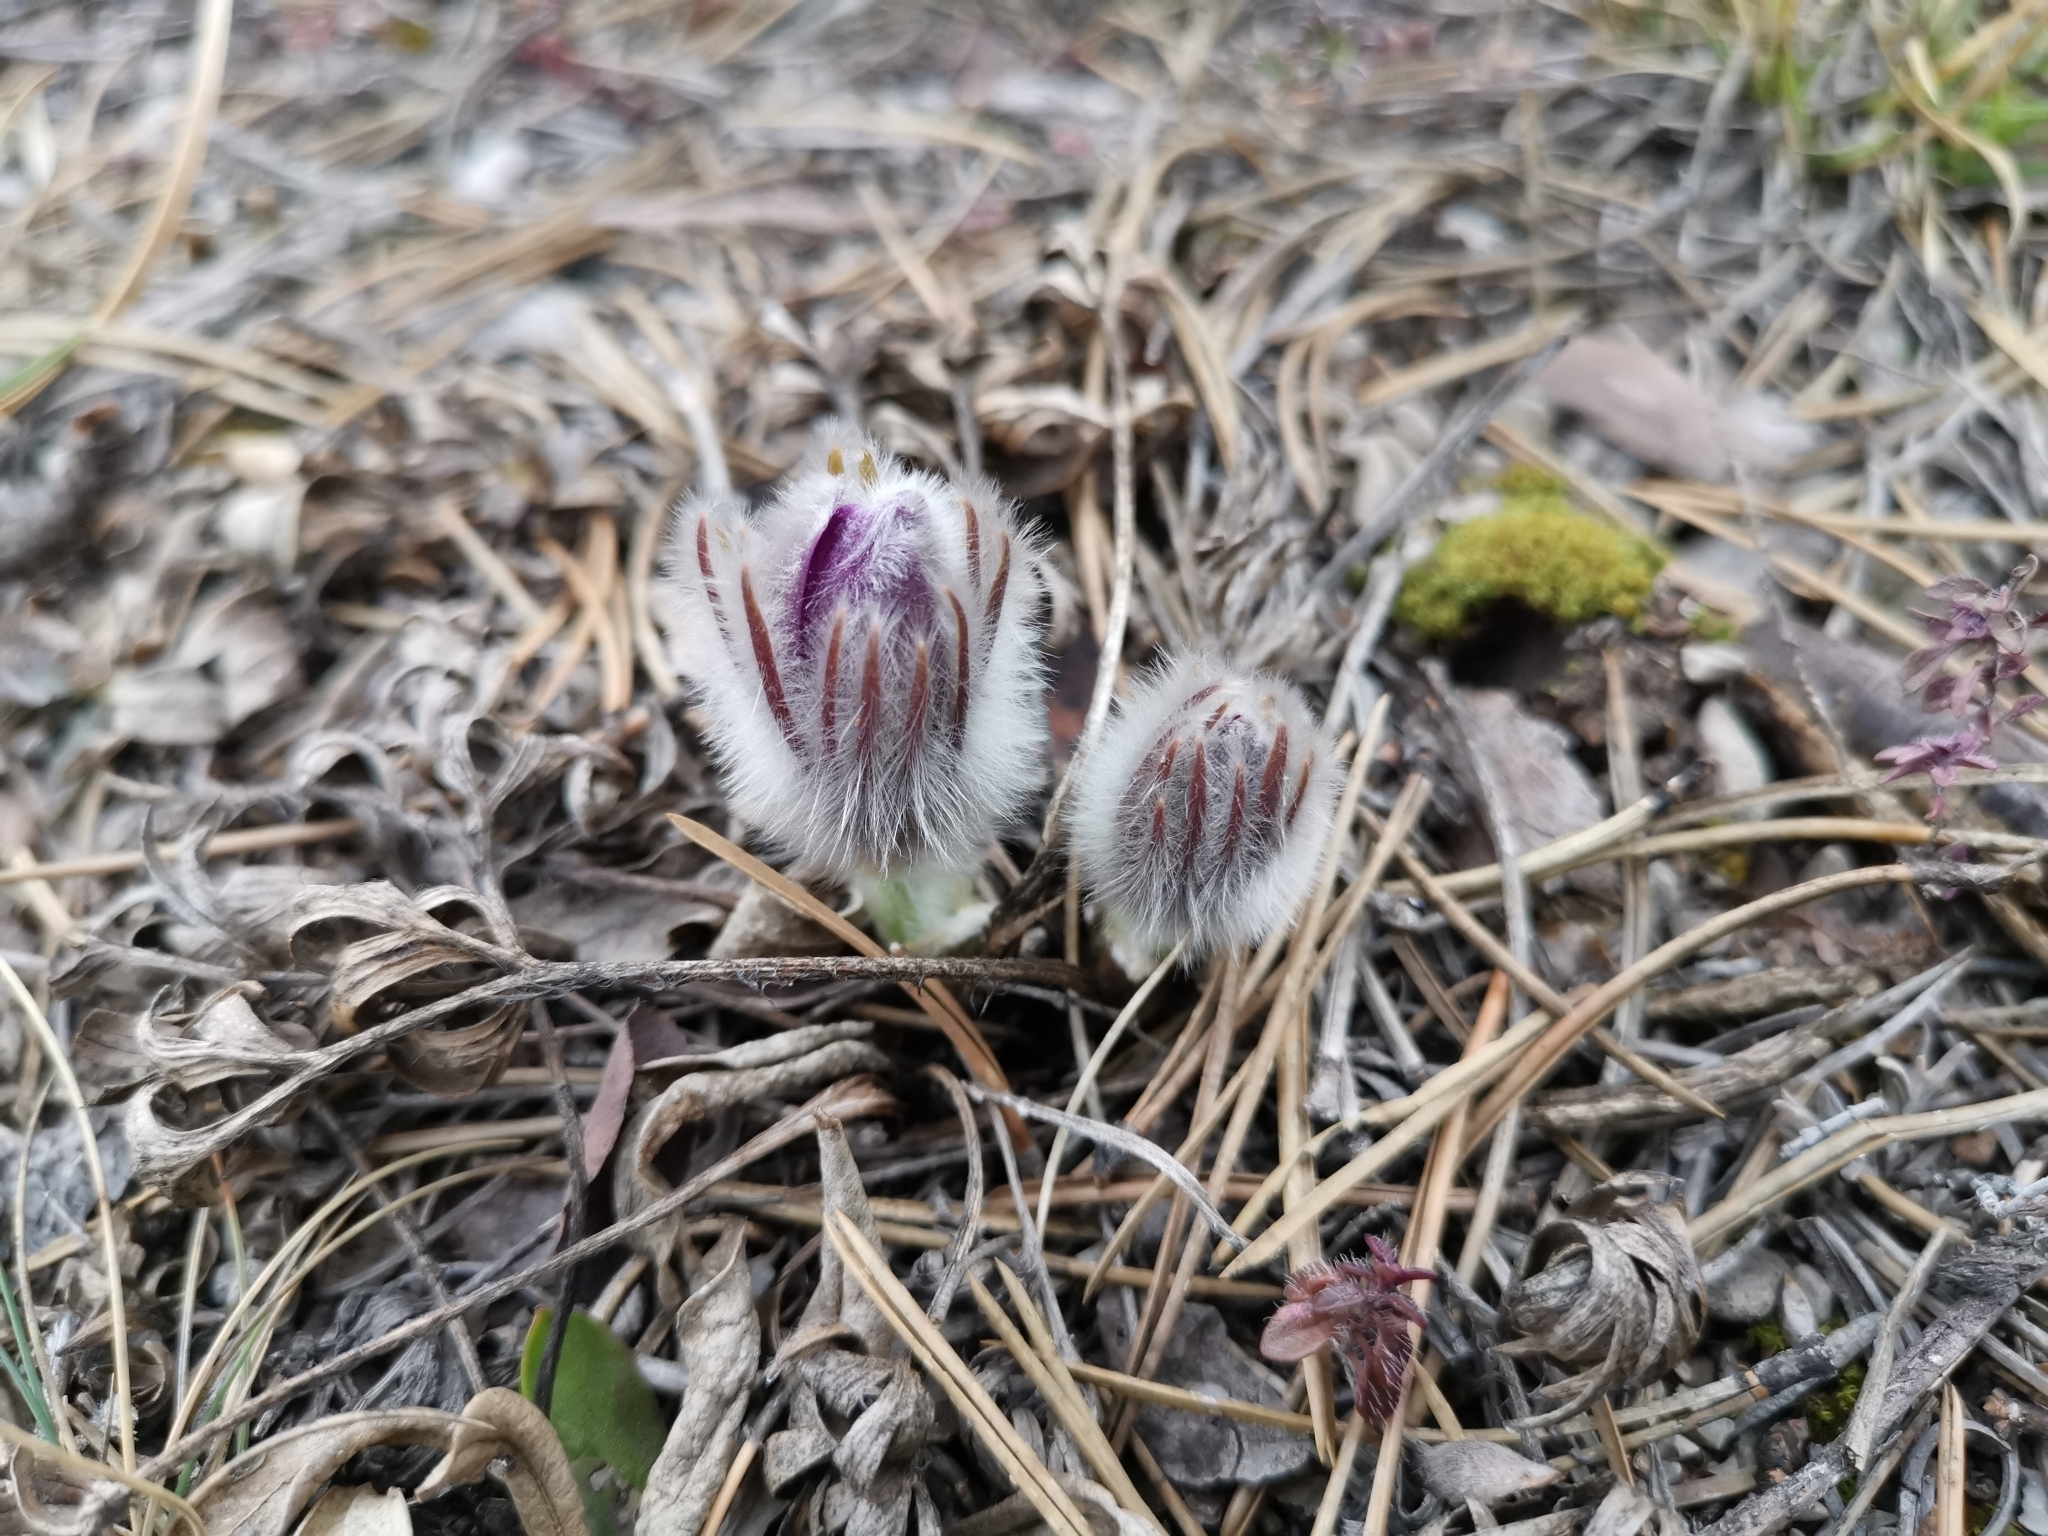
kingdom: Plantae
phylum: Tracheophyta
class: Magnoliopsida
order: Ranunculales
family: Ranunculaceae
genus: Pulsatilla
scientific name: Pulsatilla grandis
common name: Greater pasque flower
